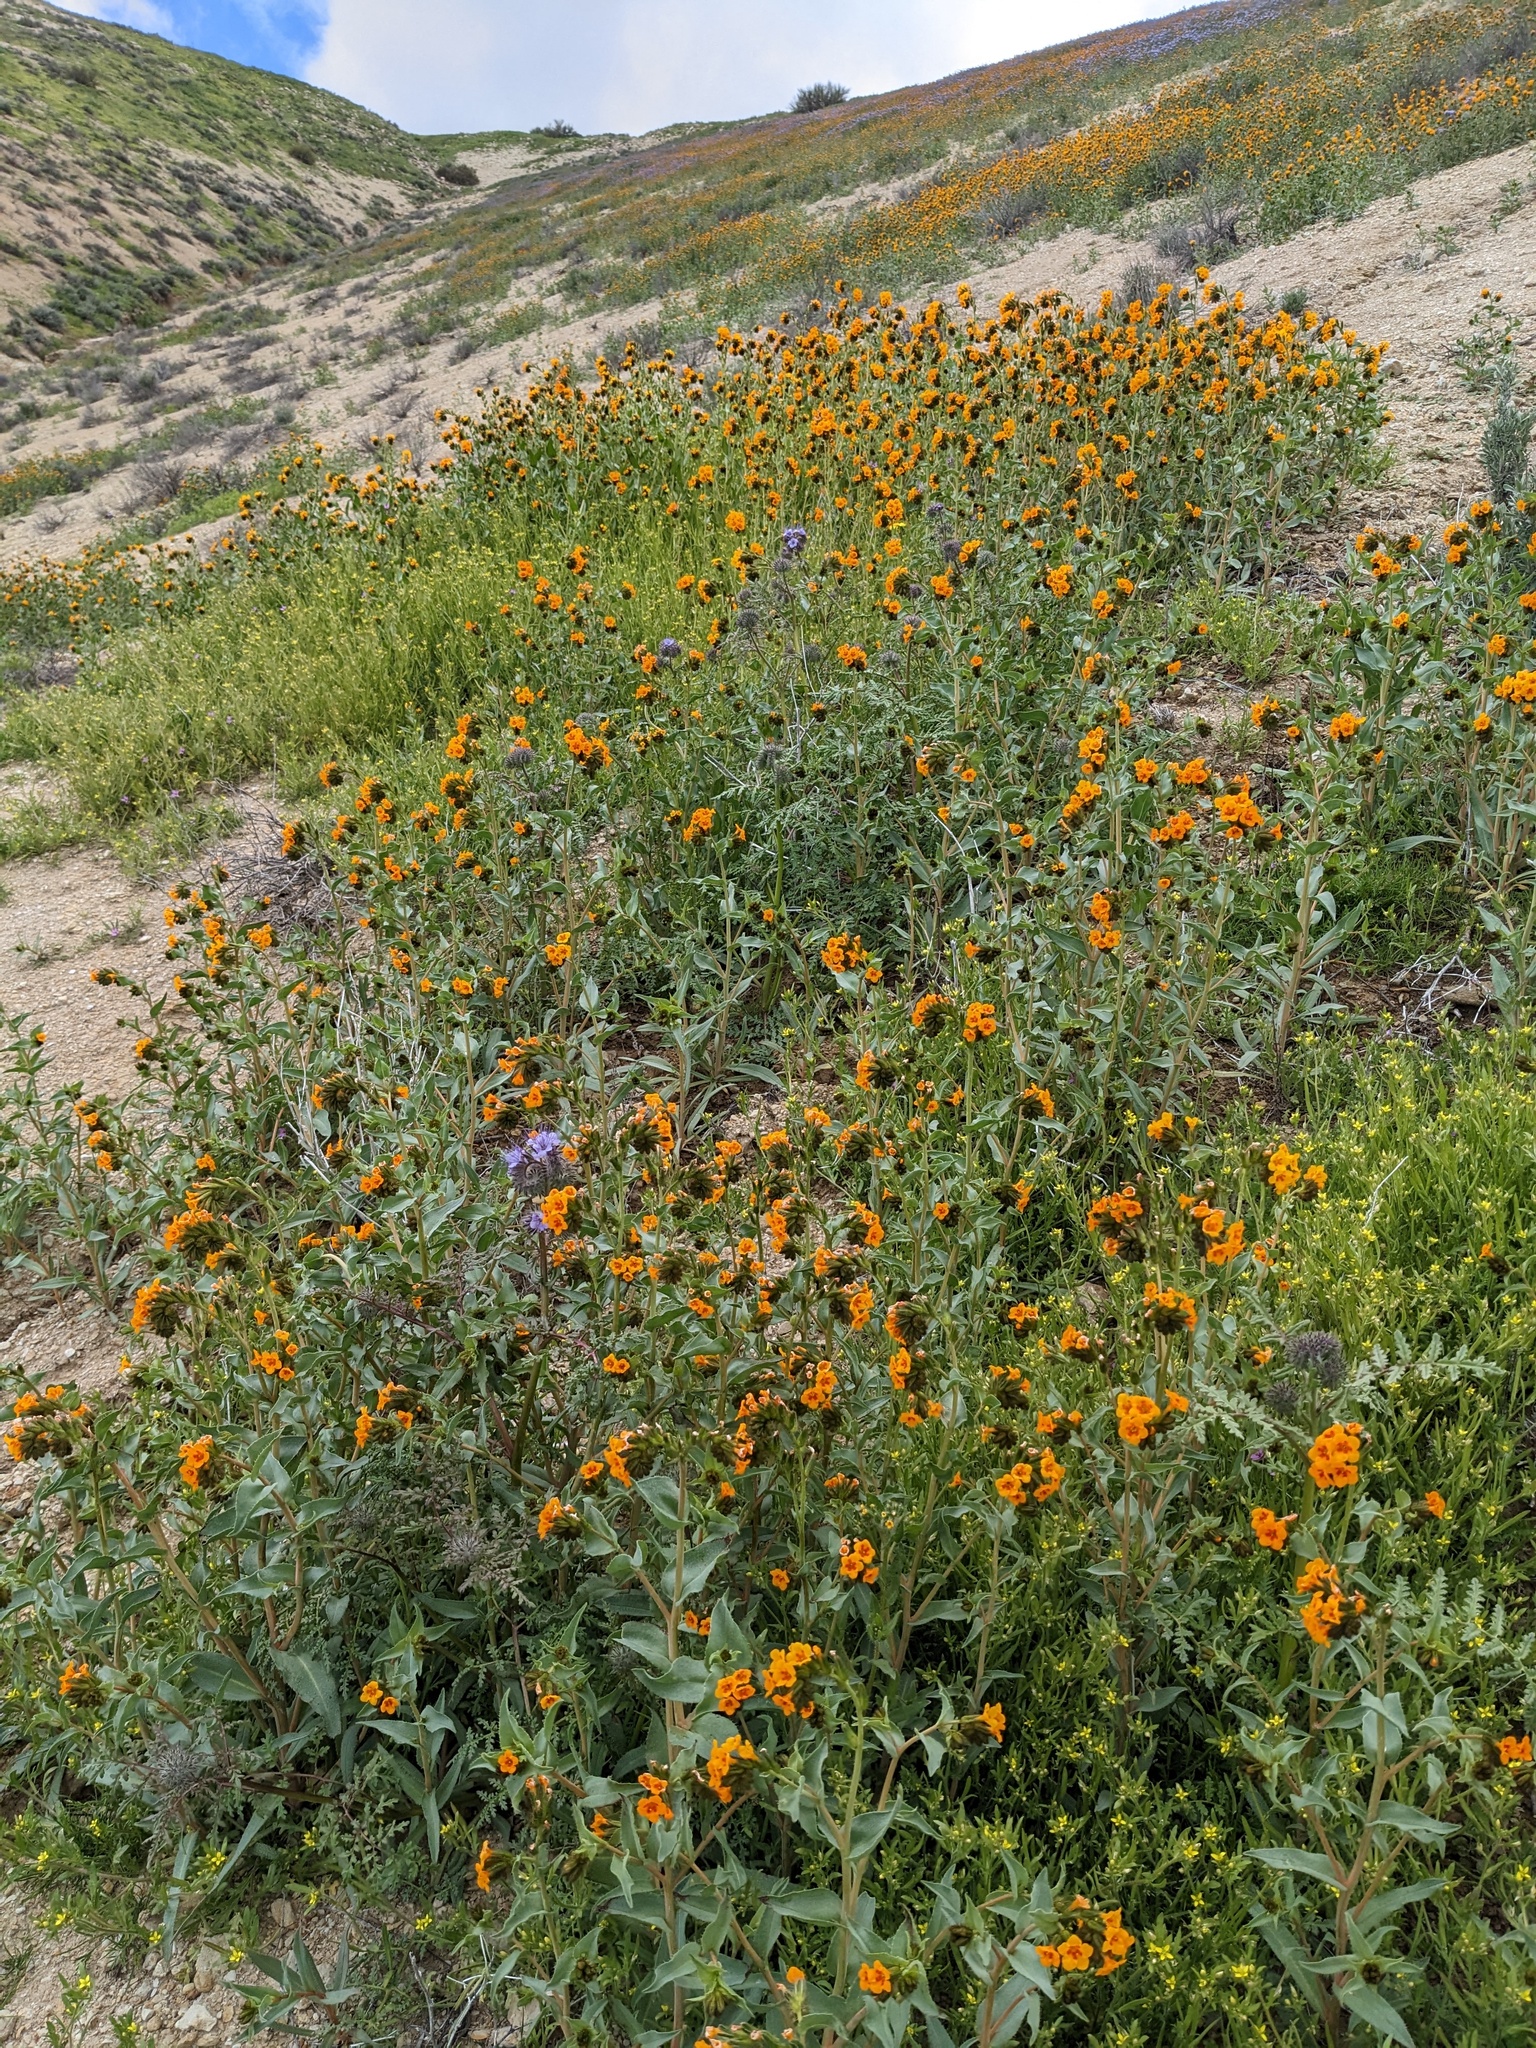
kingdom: Plantae
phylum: Tracheophyta
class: Magnoliopsida
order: Boraginales
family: Boraginaceae
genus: Amsinckia
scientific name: Amsinckia vernicosa
